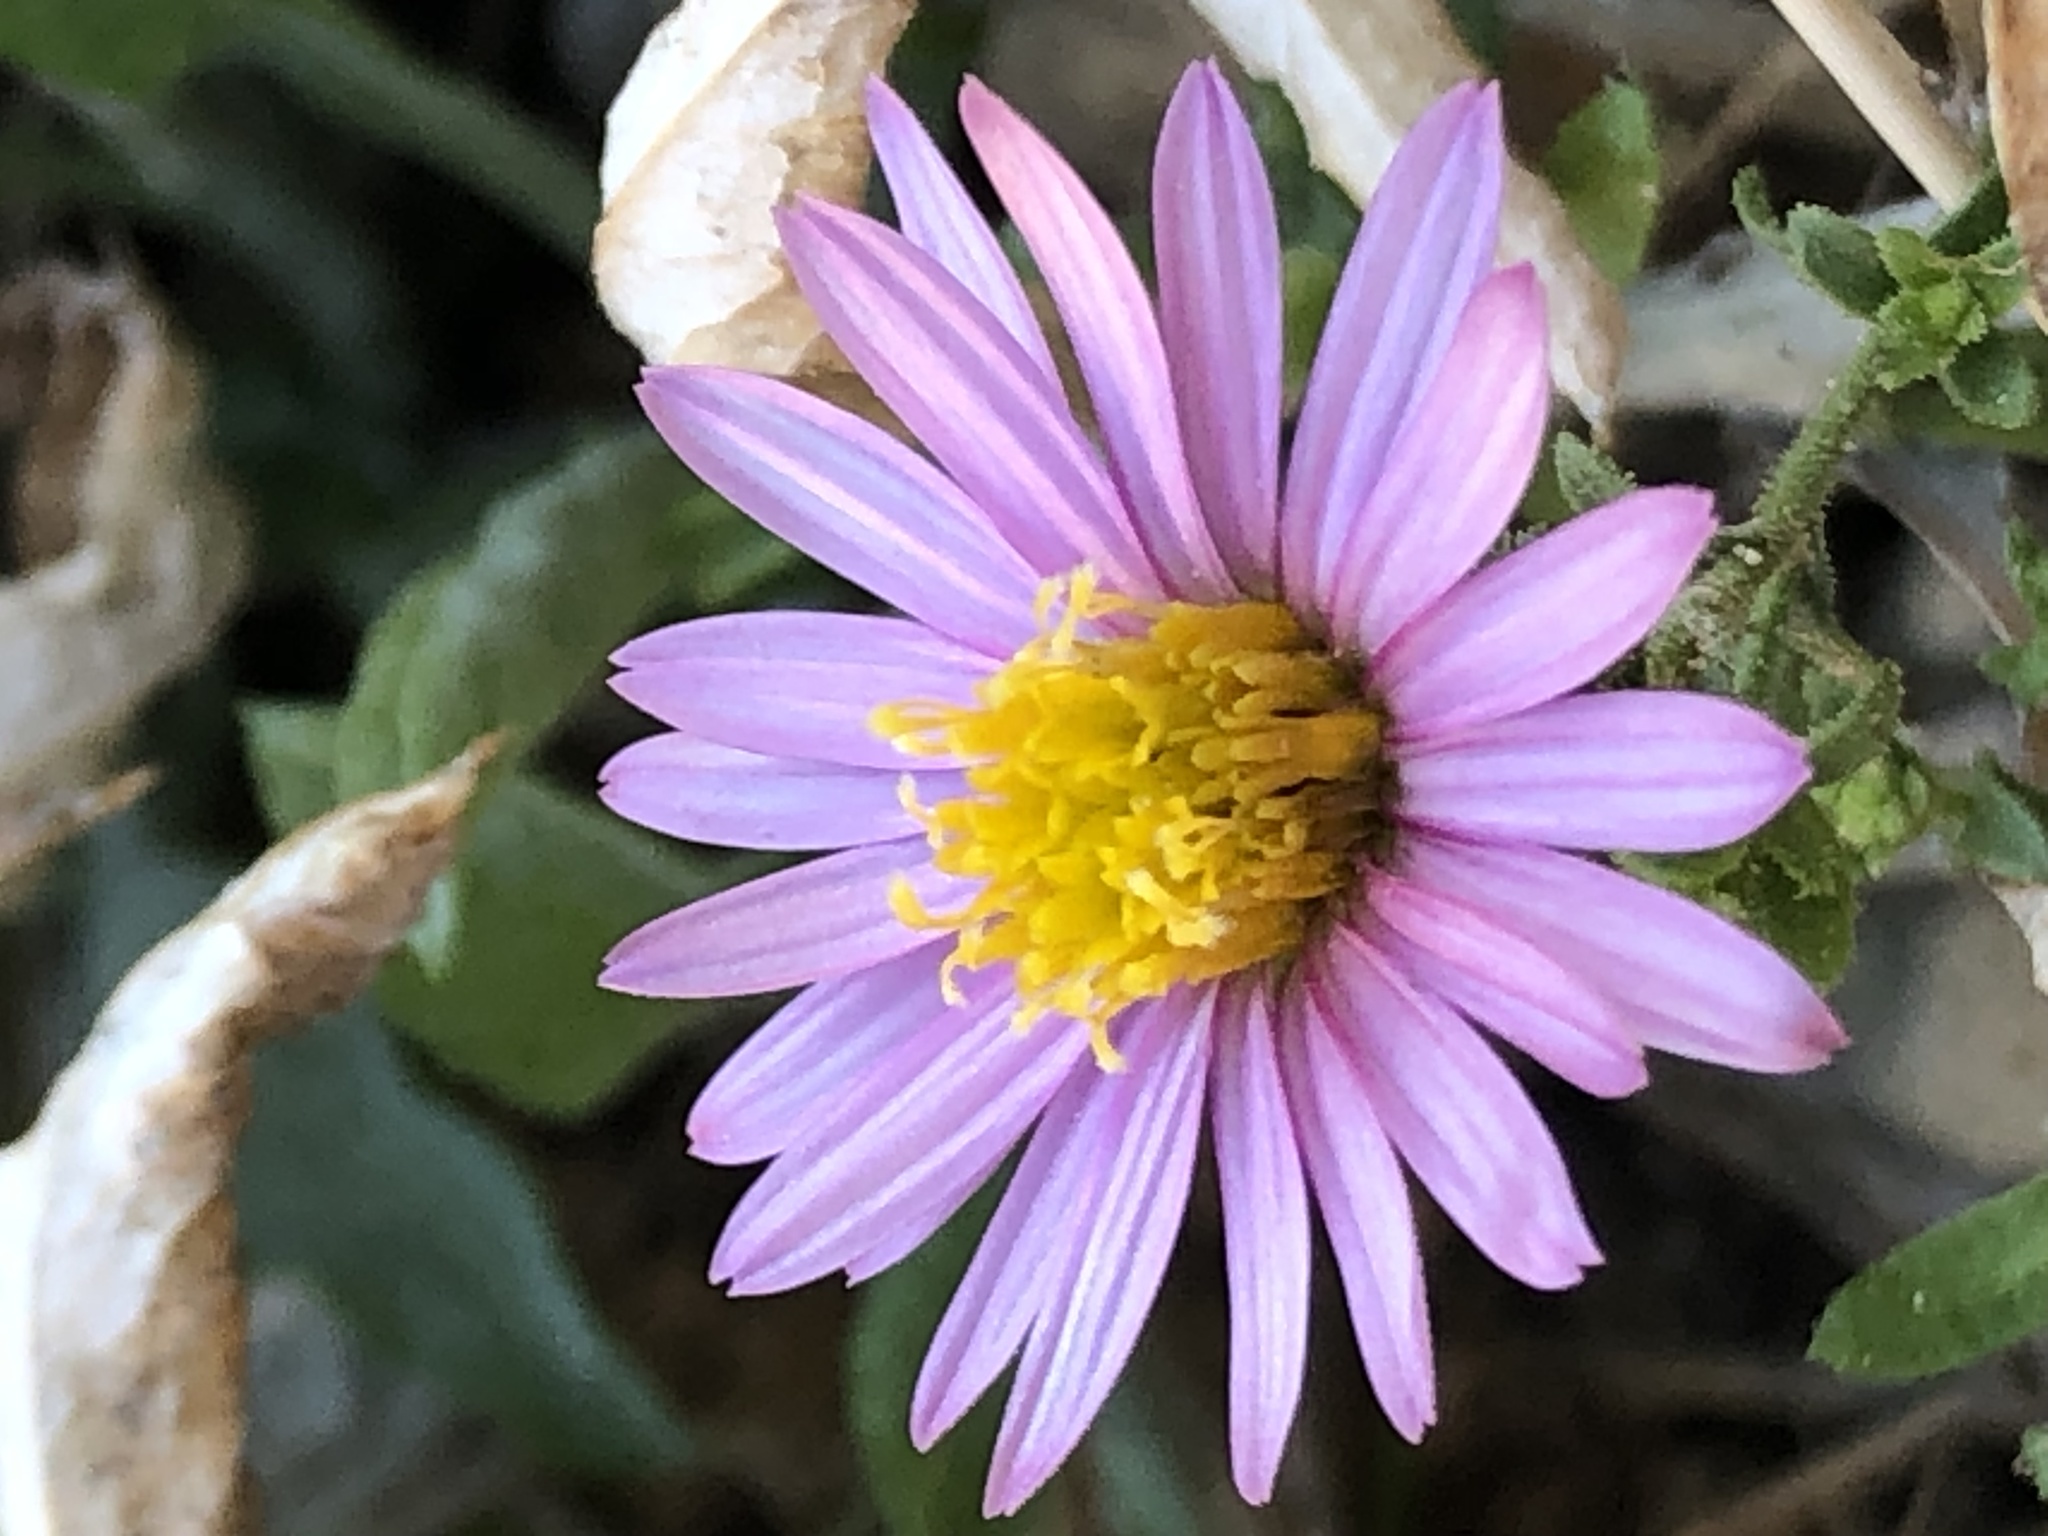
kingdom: Plantae
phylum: Tracheophyta
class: Magnoliopsida
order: Asterales
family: Asteraceae
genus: Corethrogyne
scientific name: Corethrogyne filaginifolia
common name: Sand-aster
